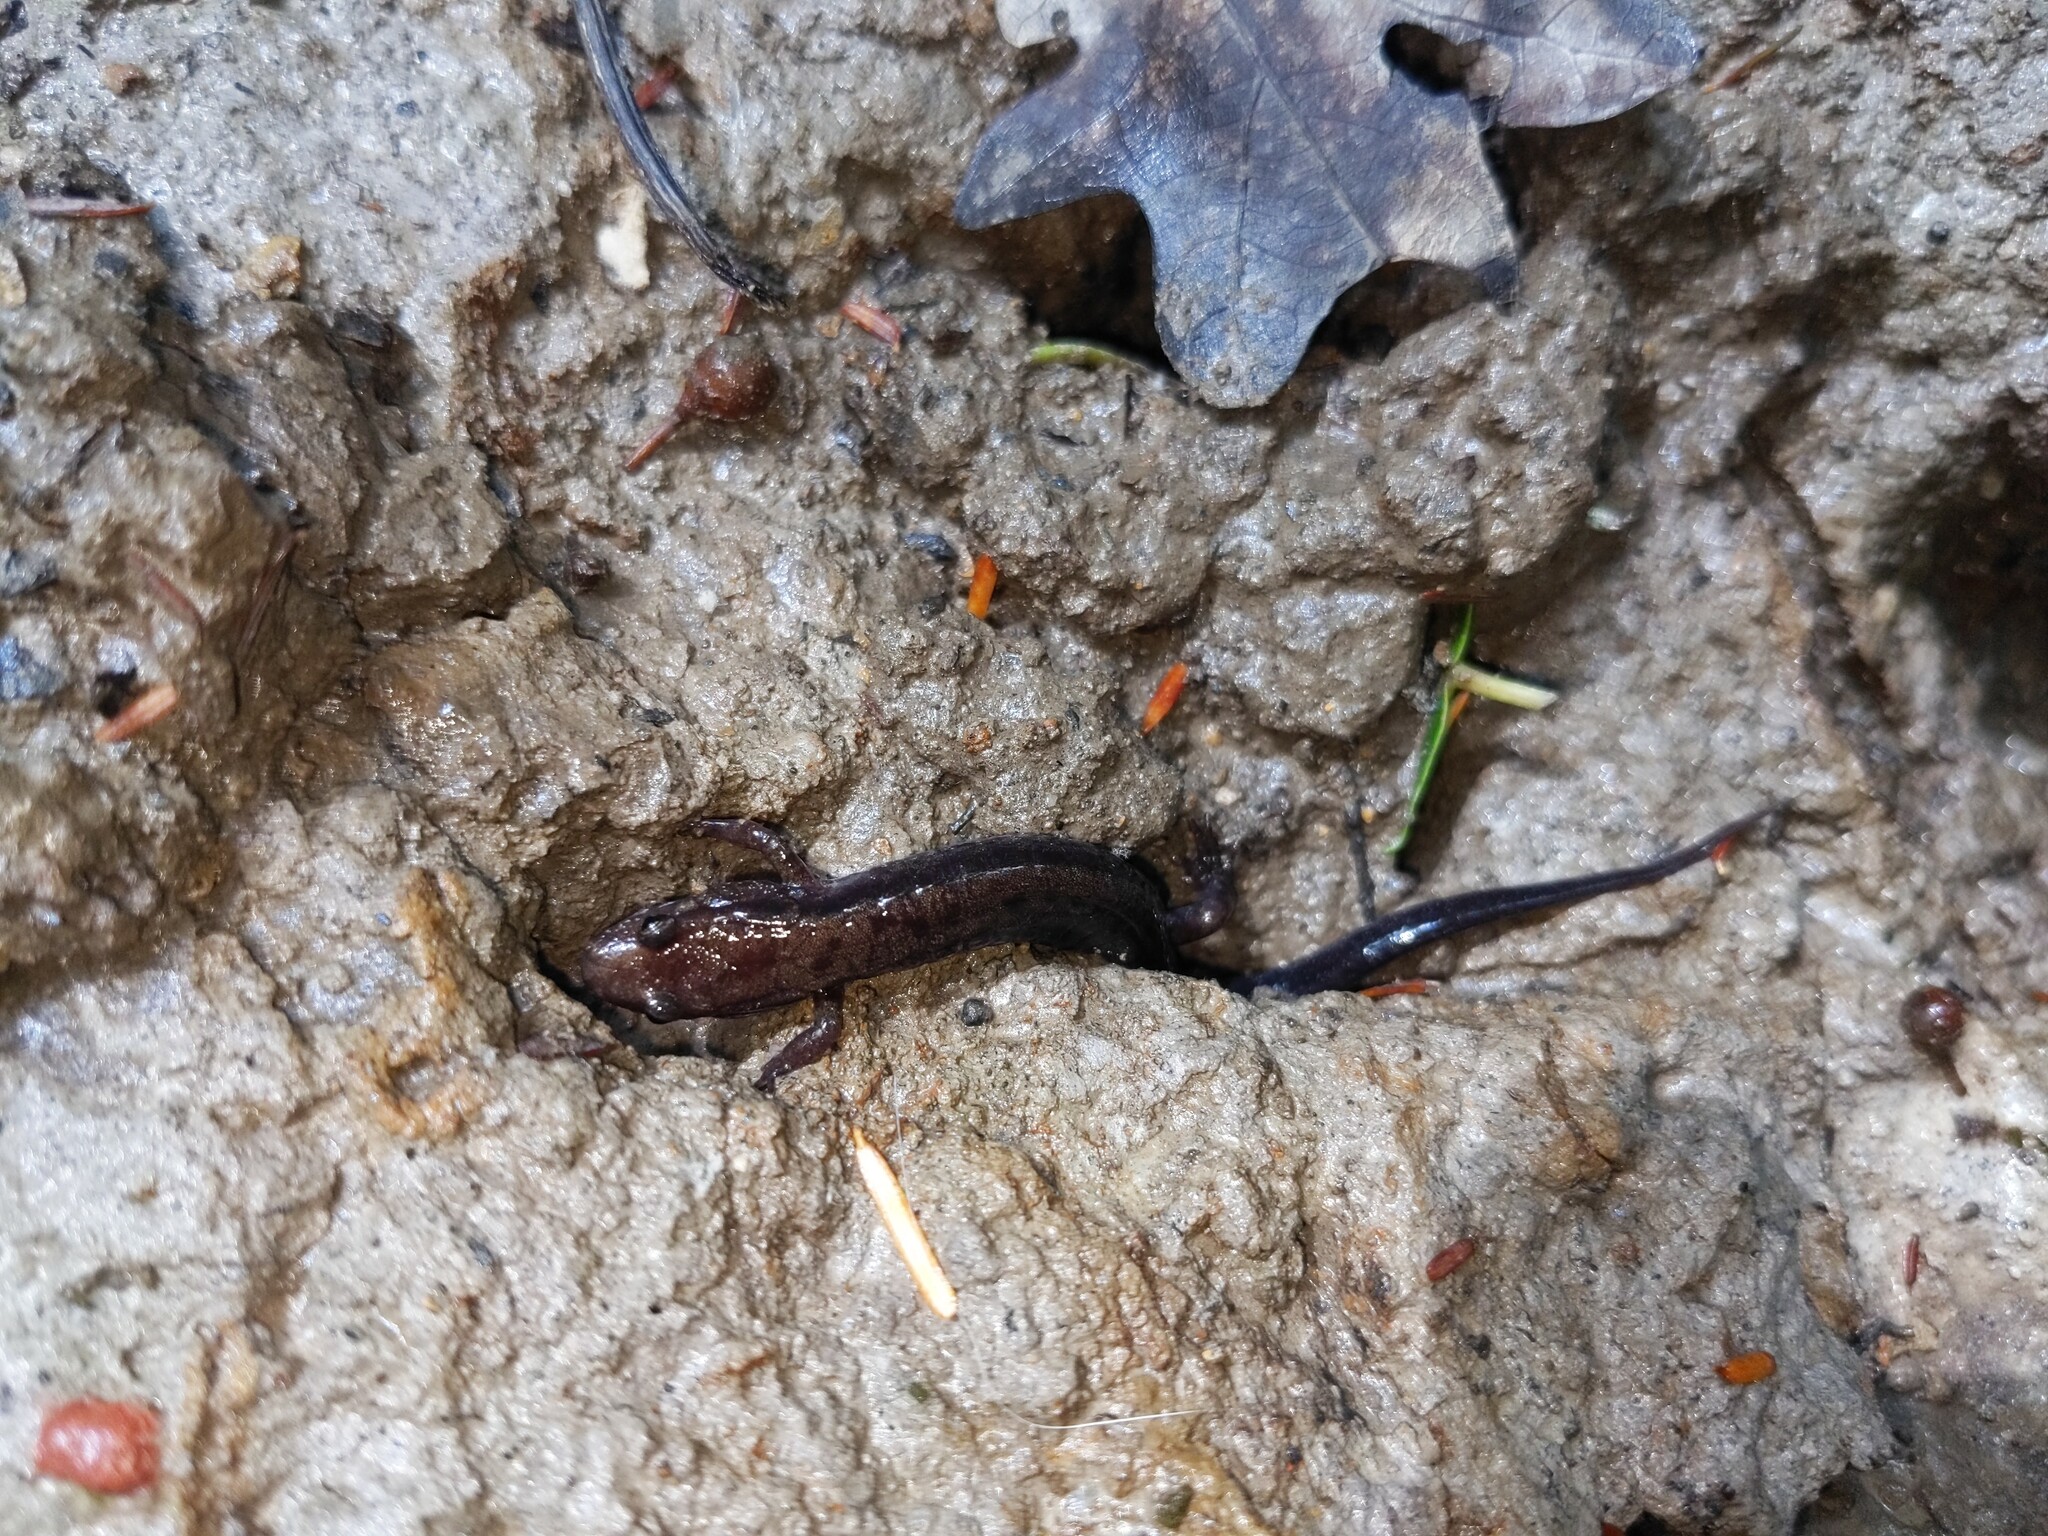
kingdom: Animalia
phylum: Chordata
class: Amphibia
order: Caudata
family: Plethodontidae
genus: Desmognathus
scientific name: Desmognathus ochrophaeus
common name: Allegheny mountain dusky salamander
